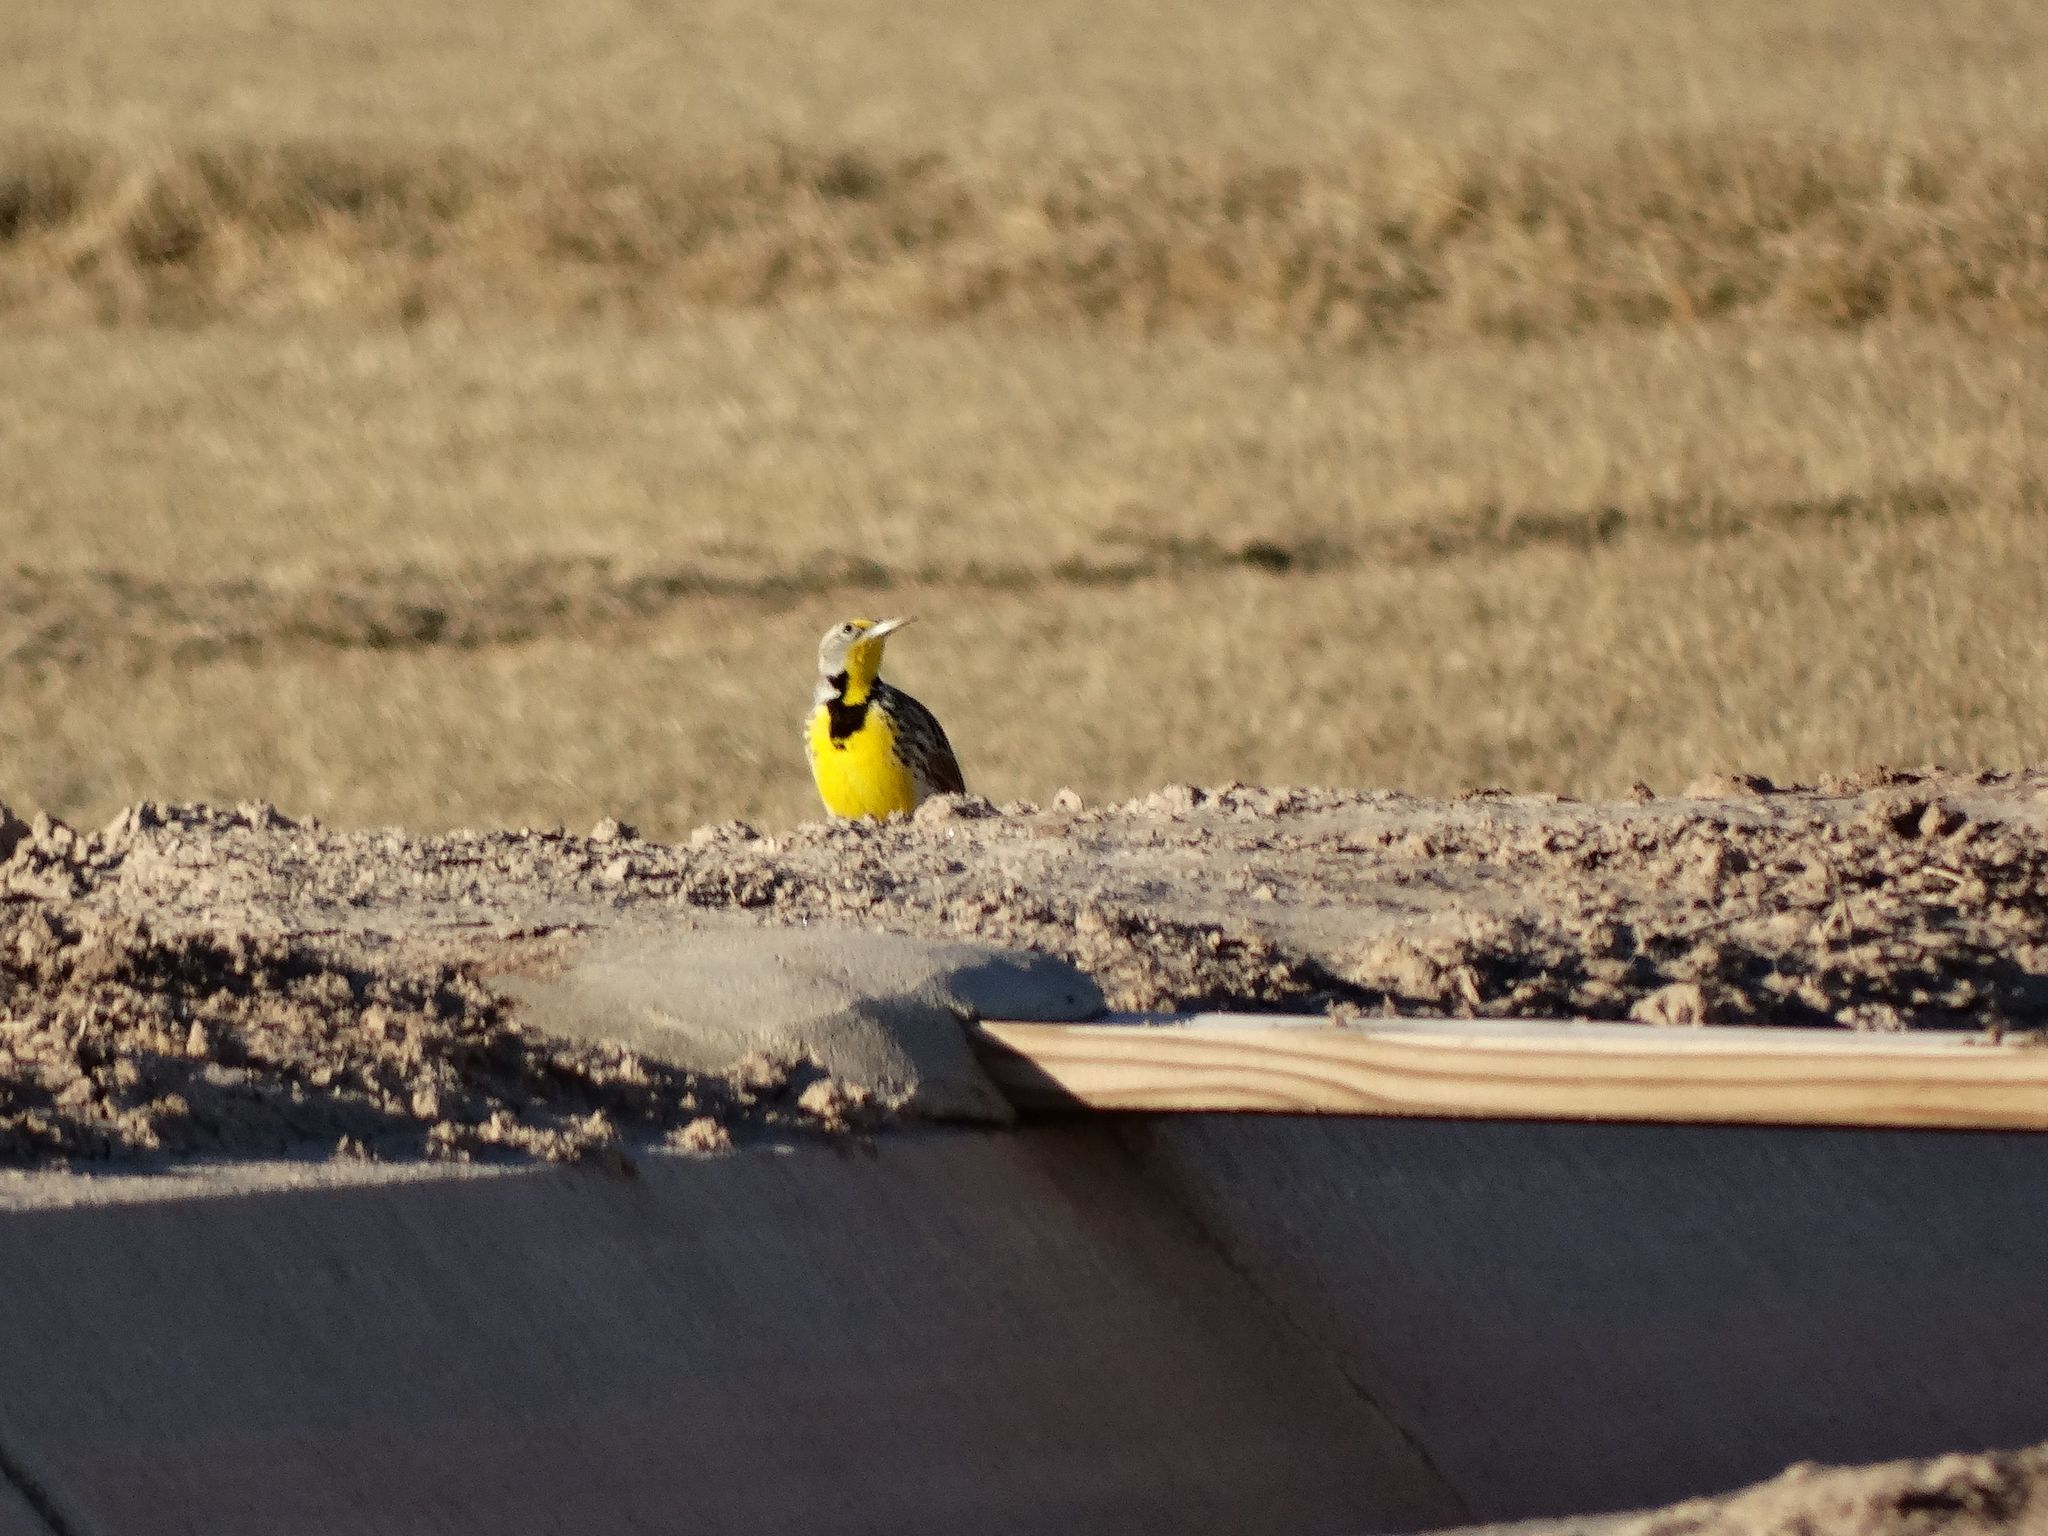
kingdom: Animalia
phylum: Chordata
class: Aves
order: Passeriformes
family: Icteridae
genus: Sturnella
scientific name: Sturnella neglecta
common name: Western meadowlark
